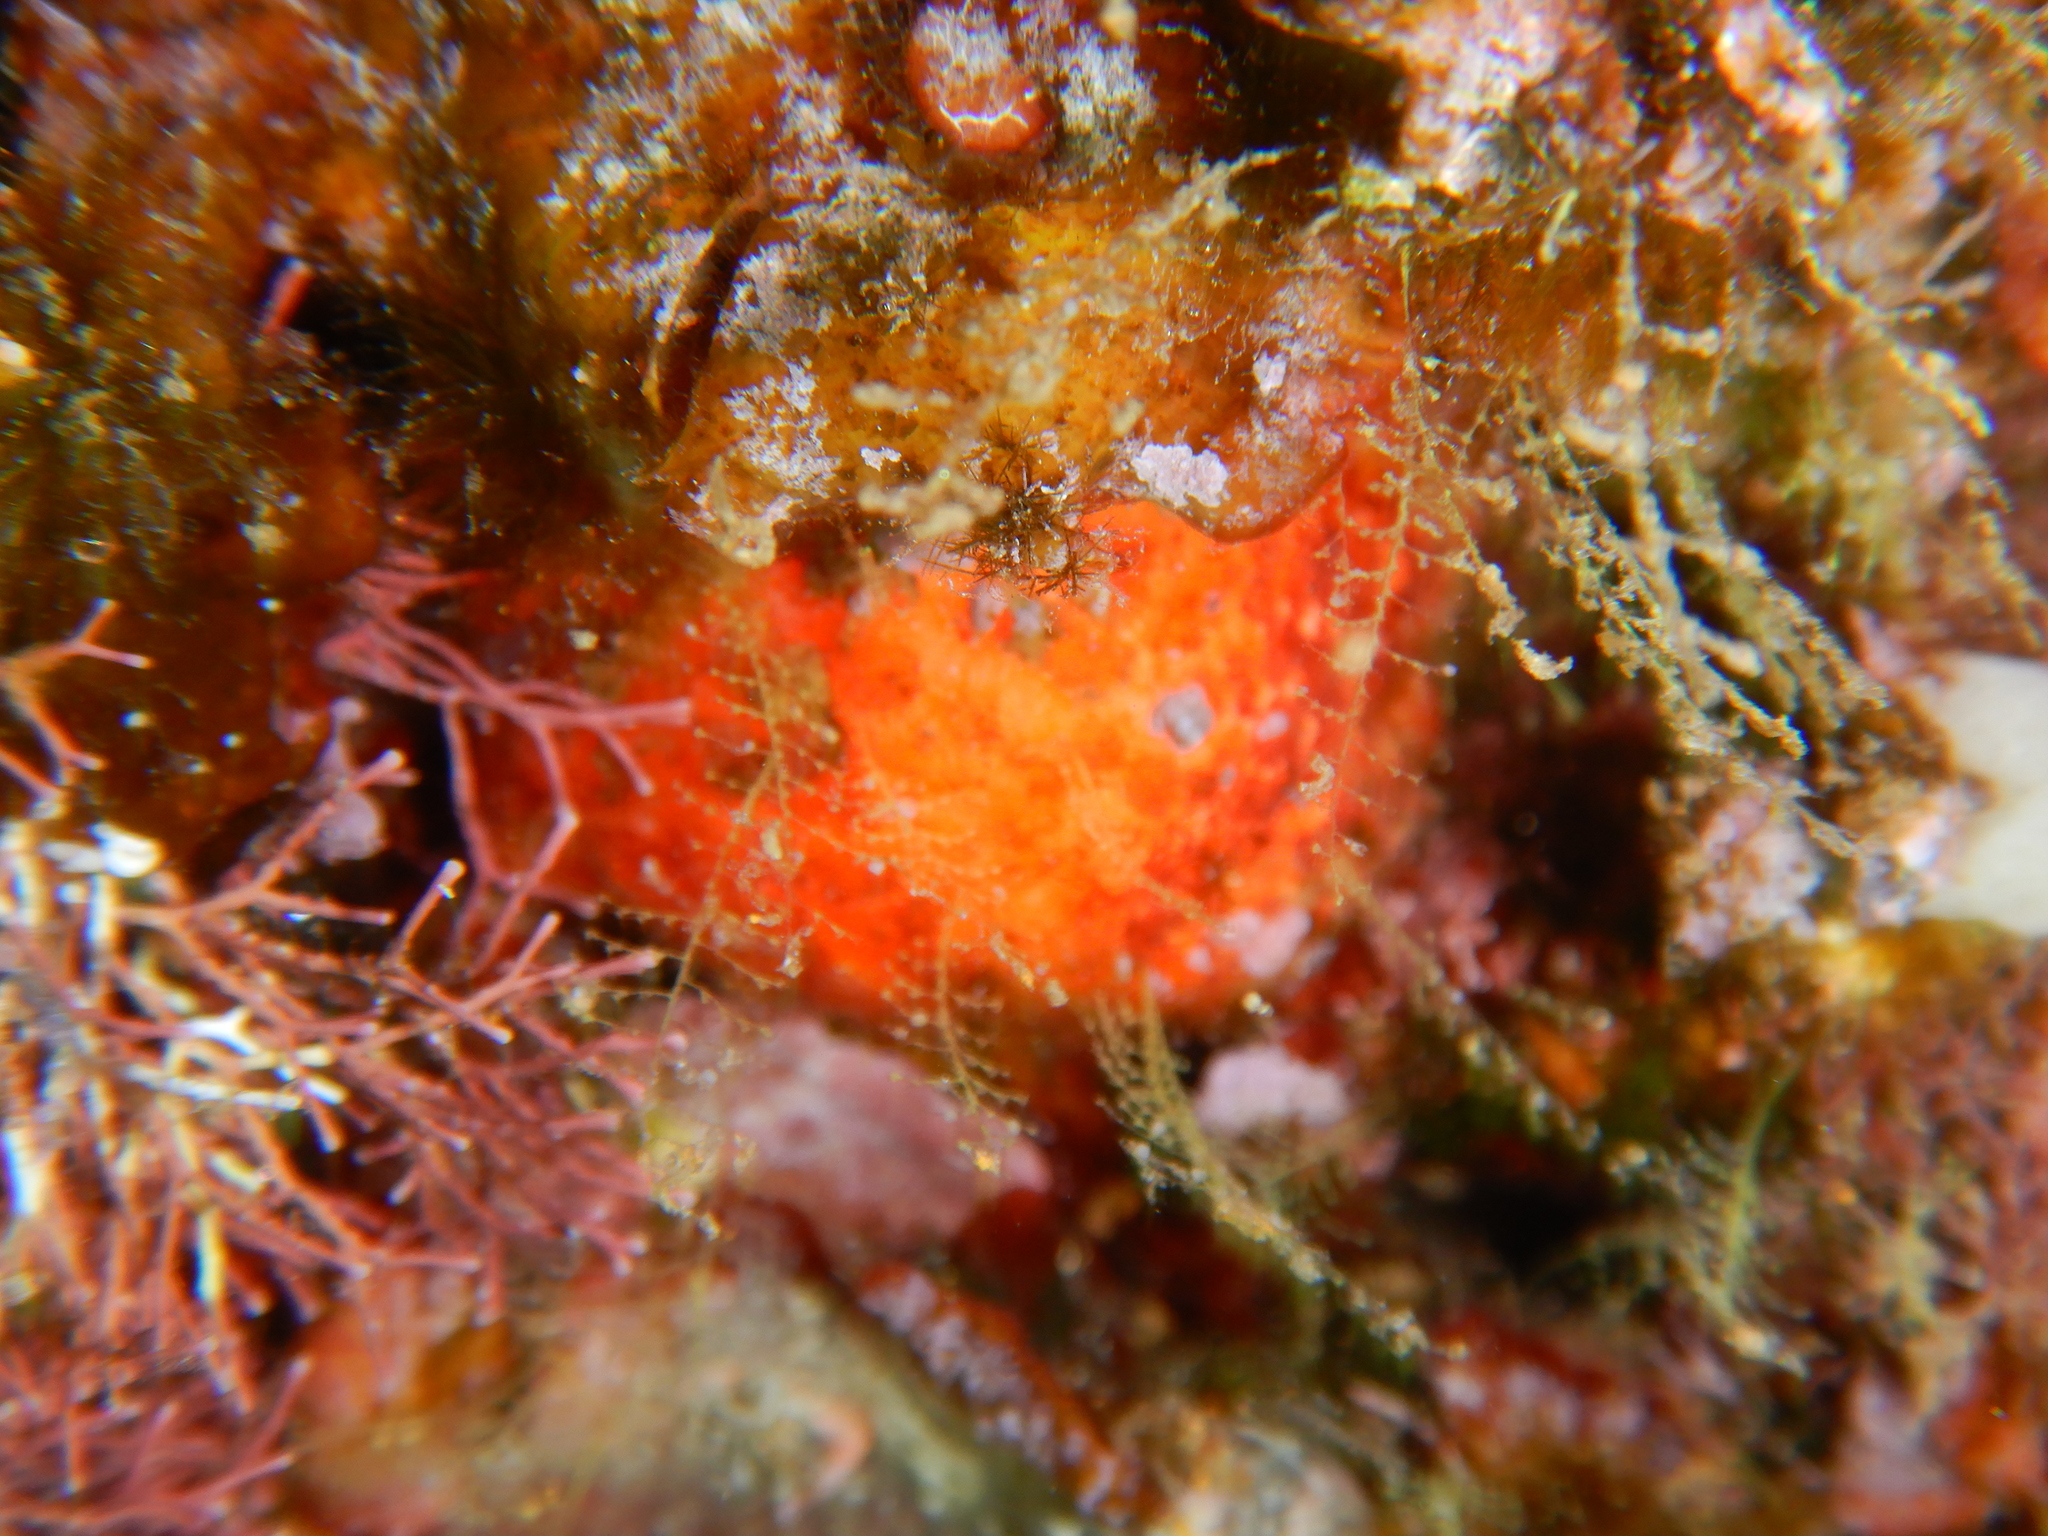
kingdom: Animalia
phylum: Porifera
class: Demospongiae
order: Tethyida
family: Tethyidae
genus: Tethya
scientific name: Tethya aurantium
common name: Golf ball sponge
